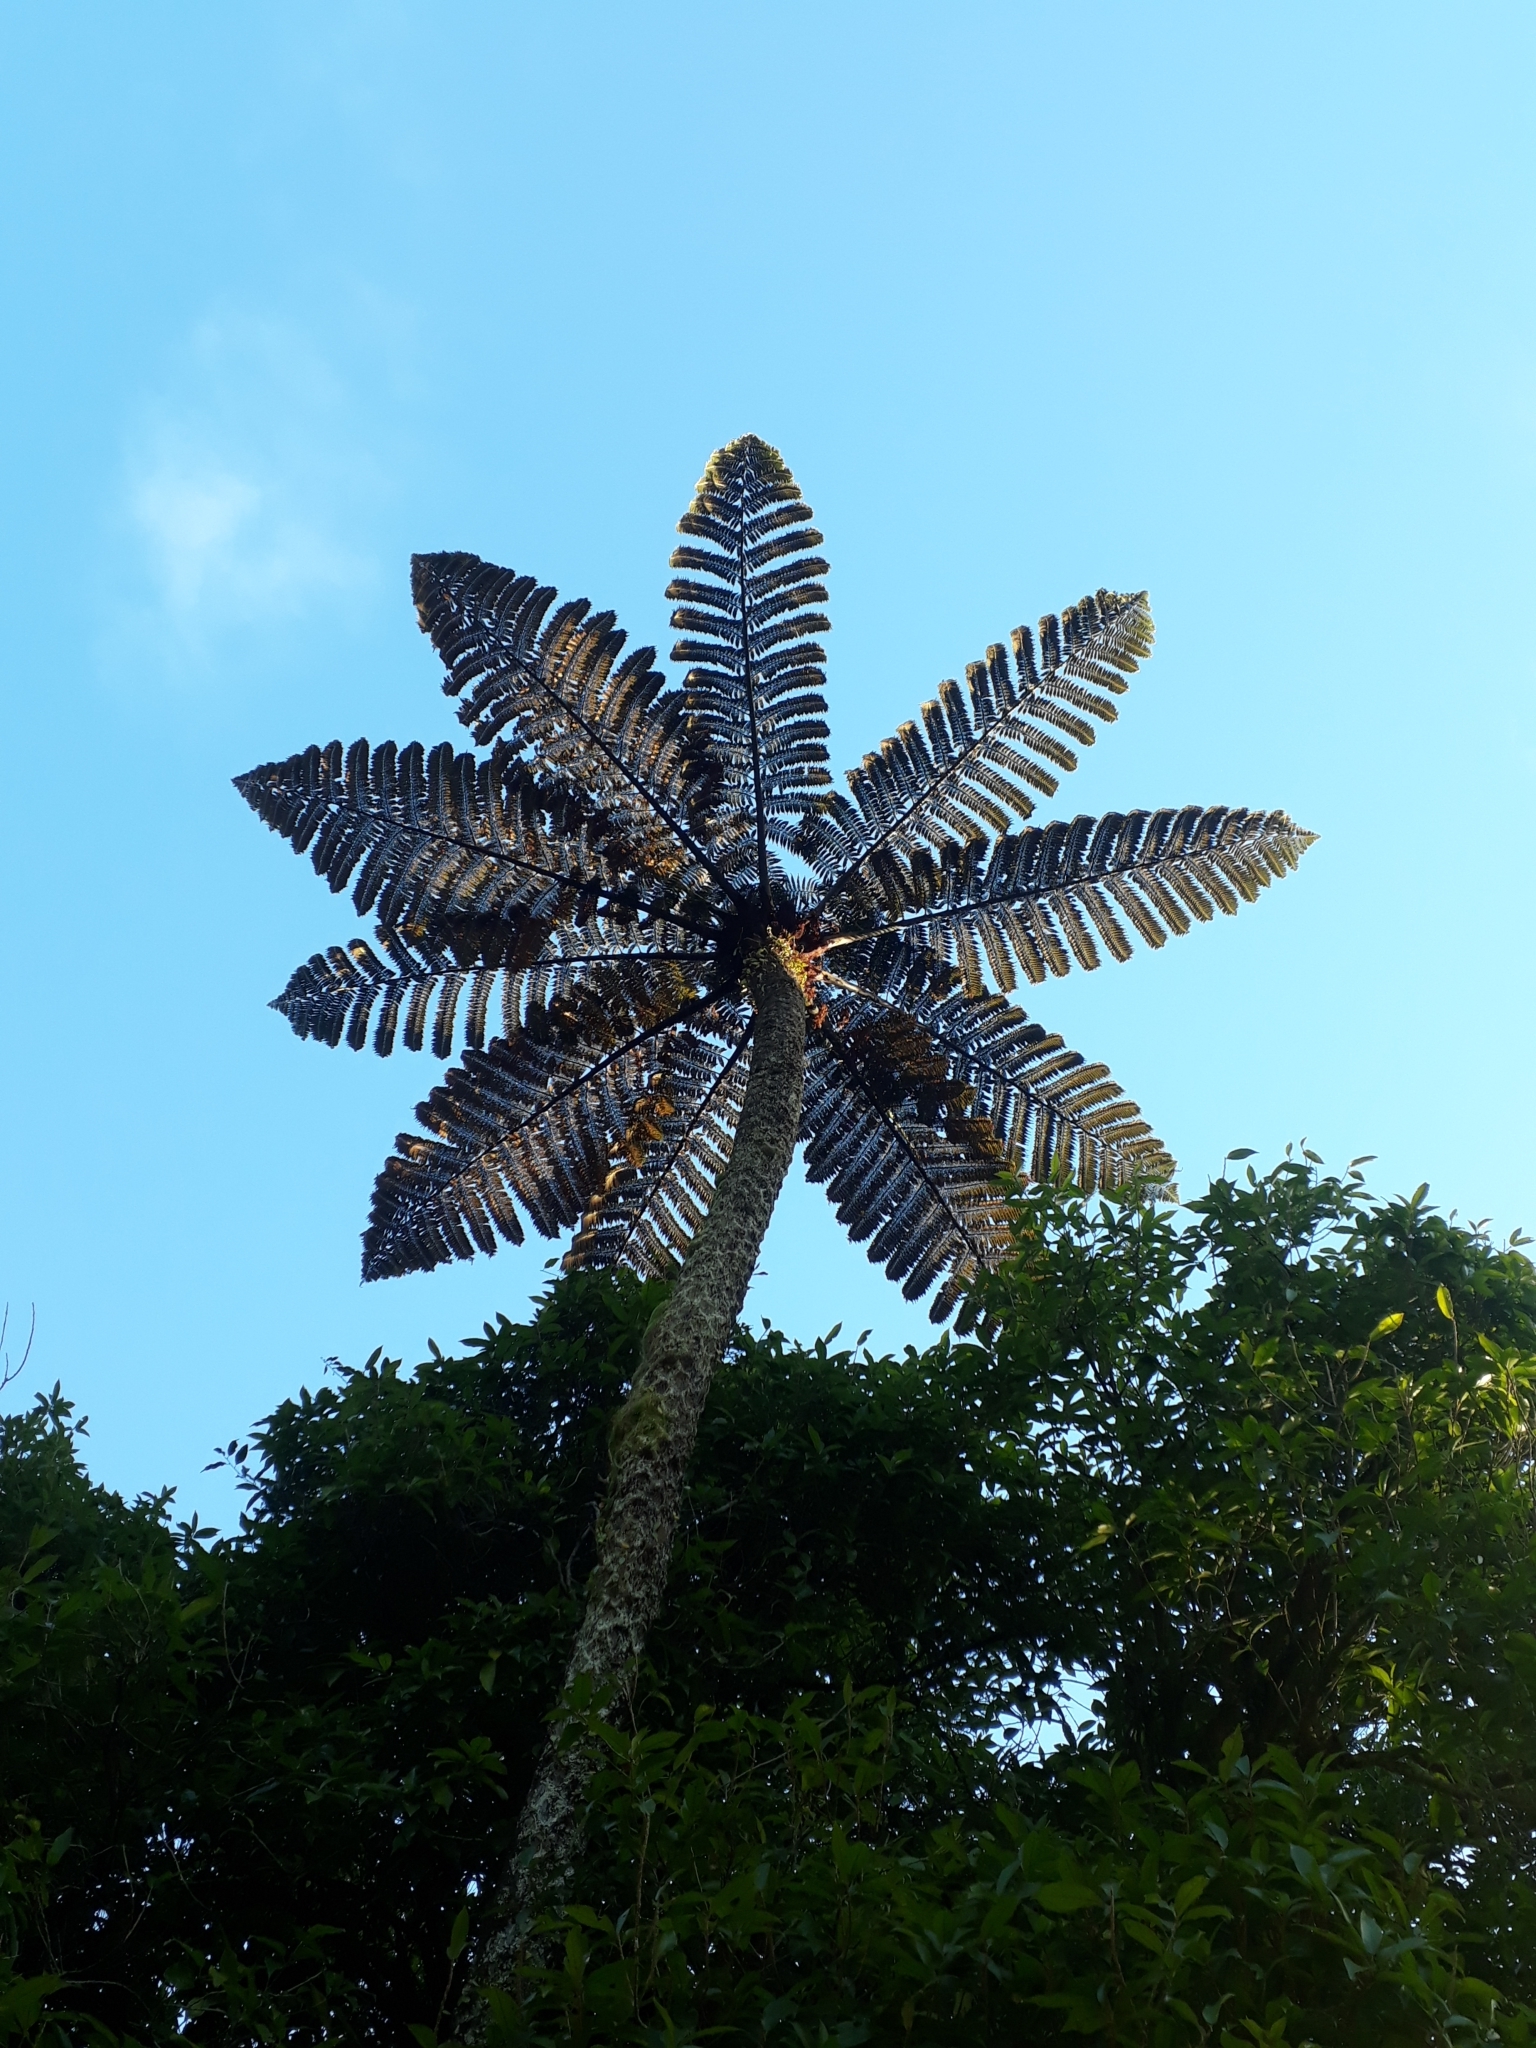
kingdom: Plantae
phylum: Tracheophyta
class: Polypodiopsida
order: Cyatheales
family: Cyatheaceae
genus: Sphaeropteris
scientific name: Sphaeropteris medullaris
